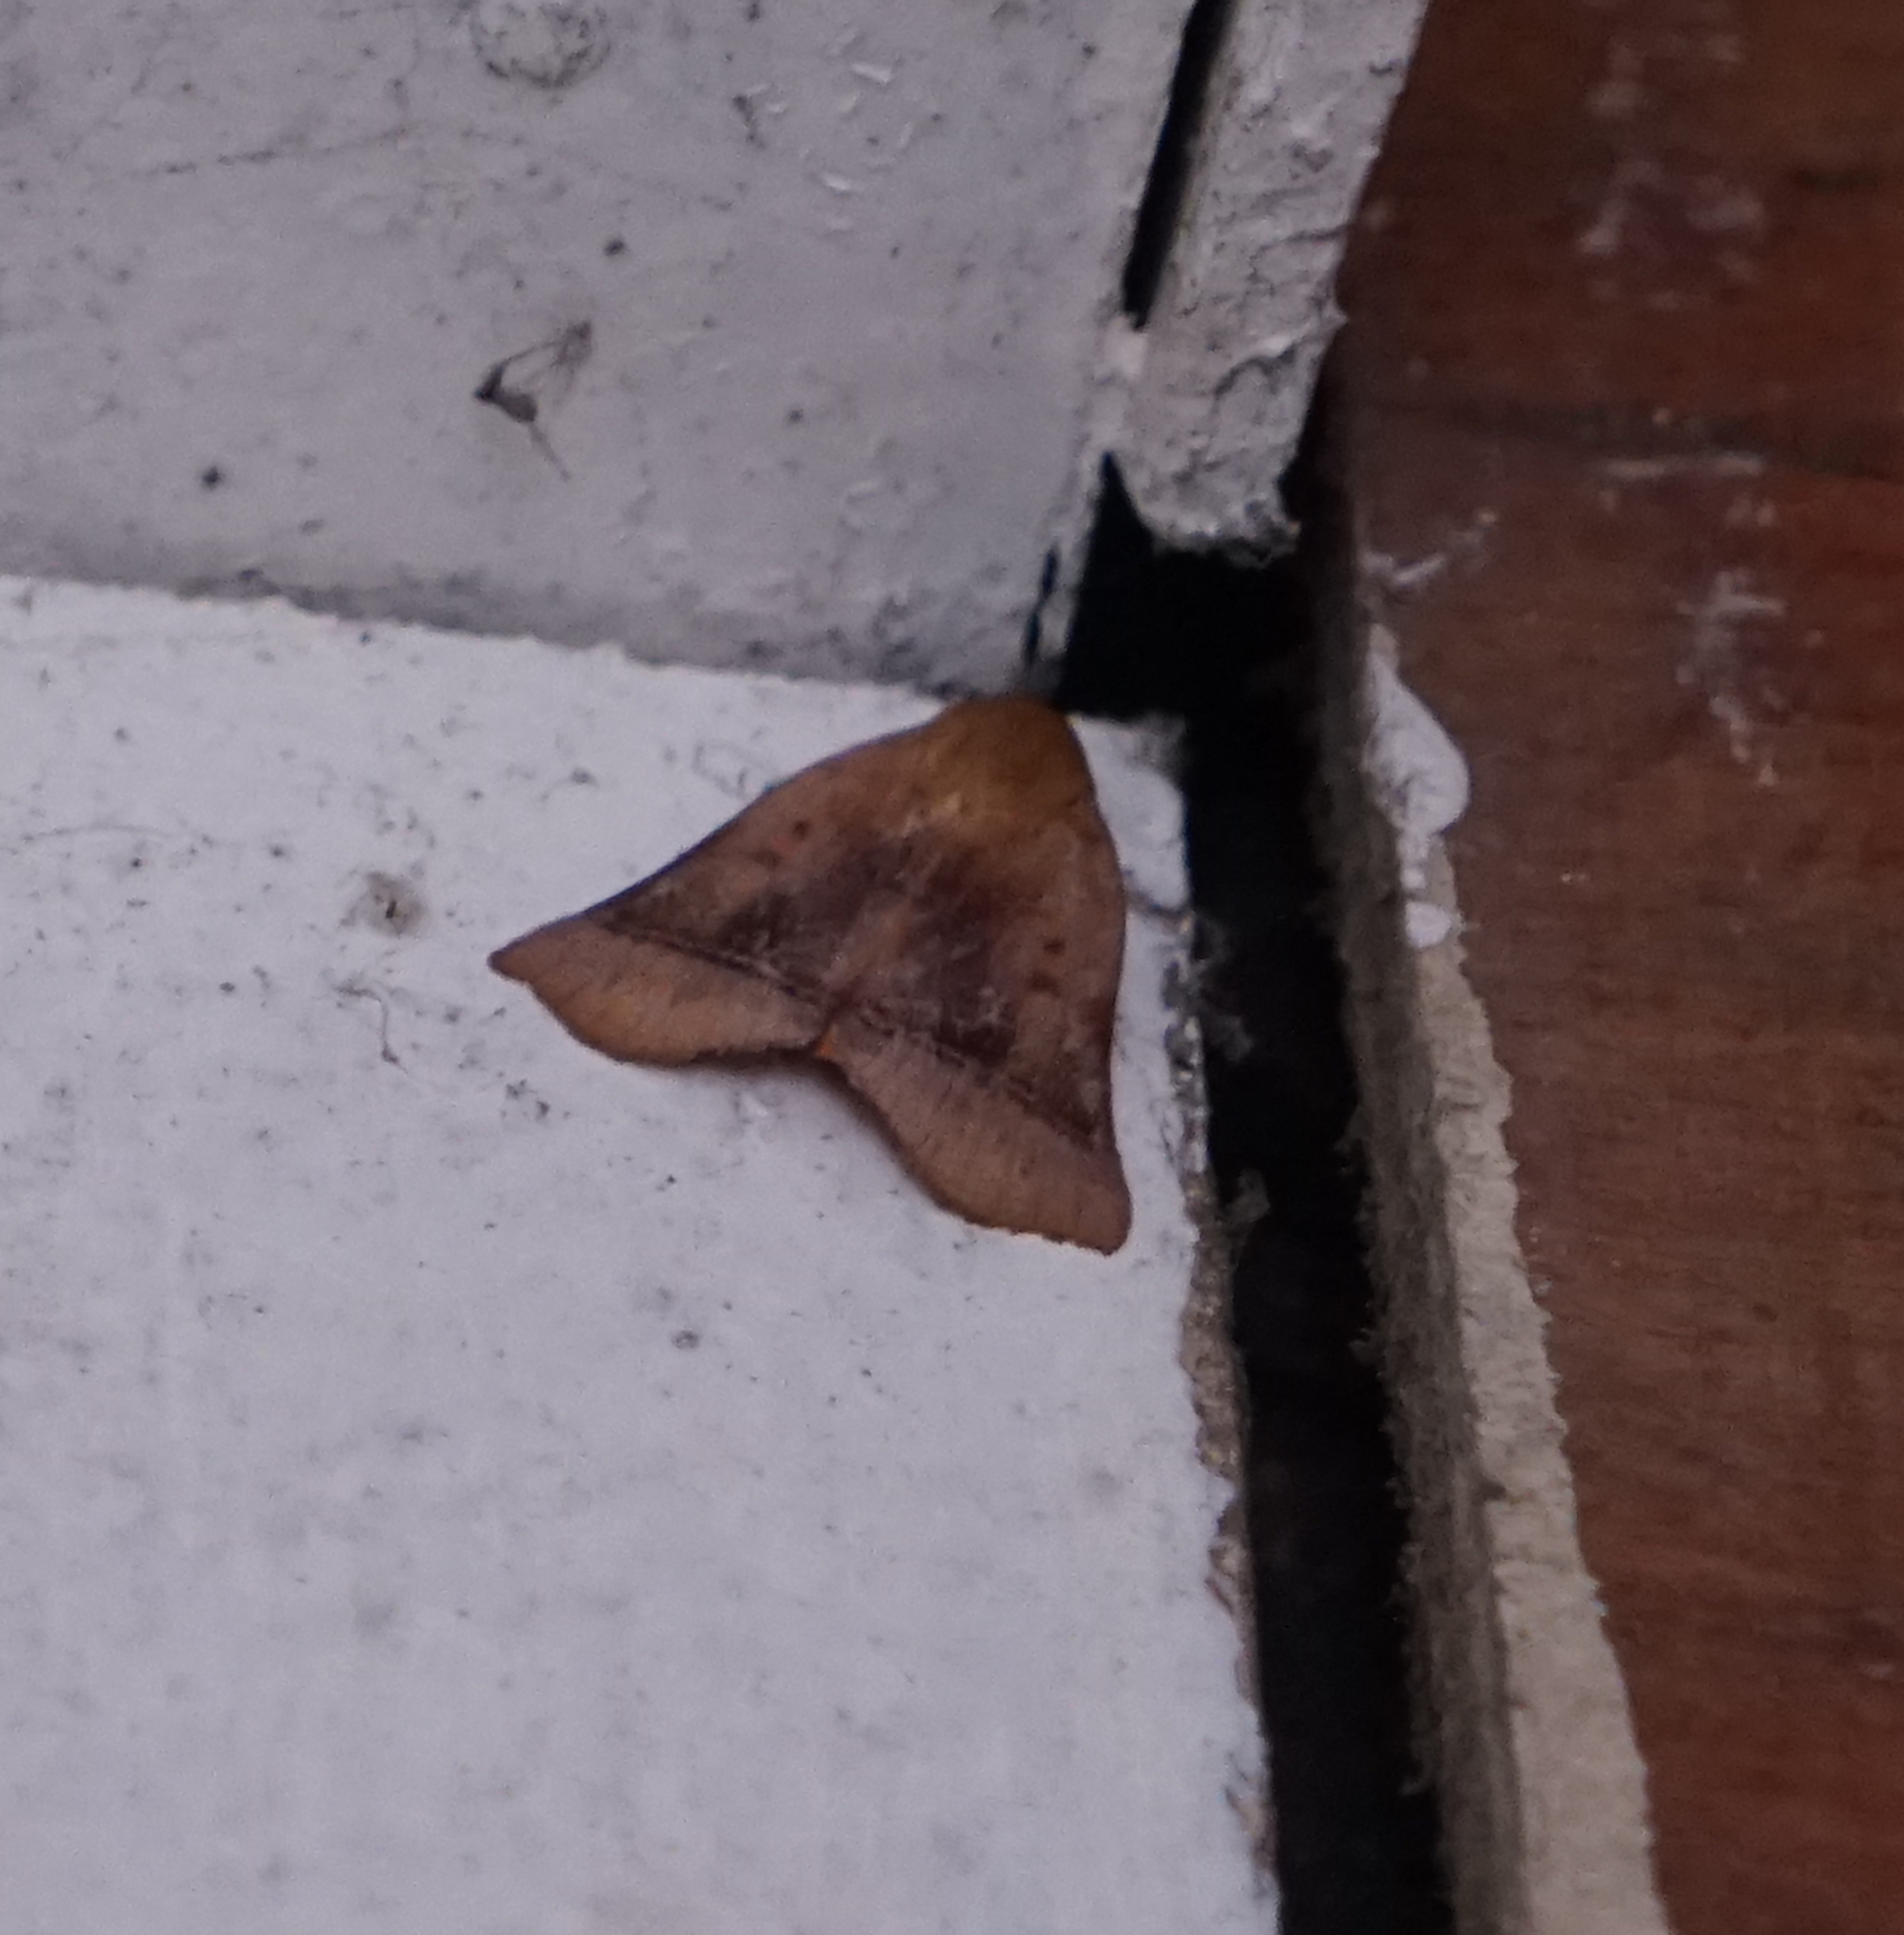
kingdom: Animalia
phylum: Arthropoda
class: Insecta
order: Lepidoptera
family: Nolidae
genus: Diehlea
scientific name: Diehlea ducalis
